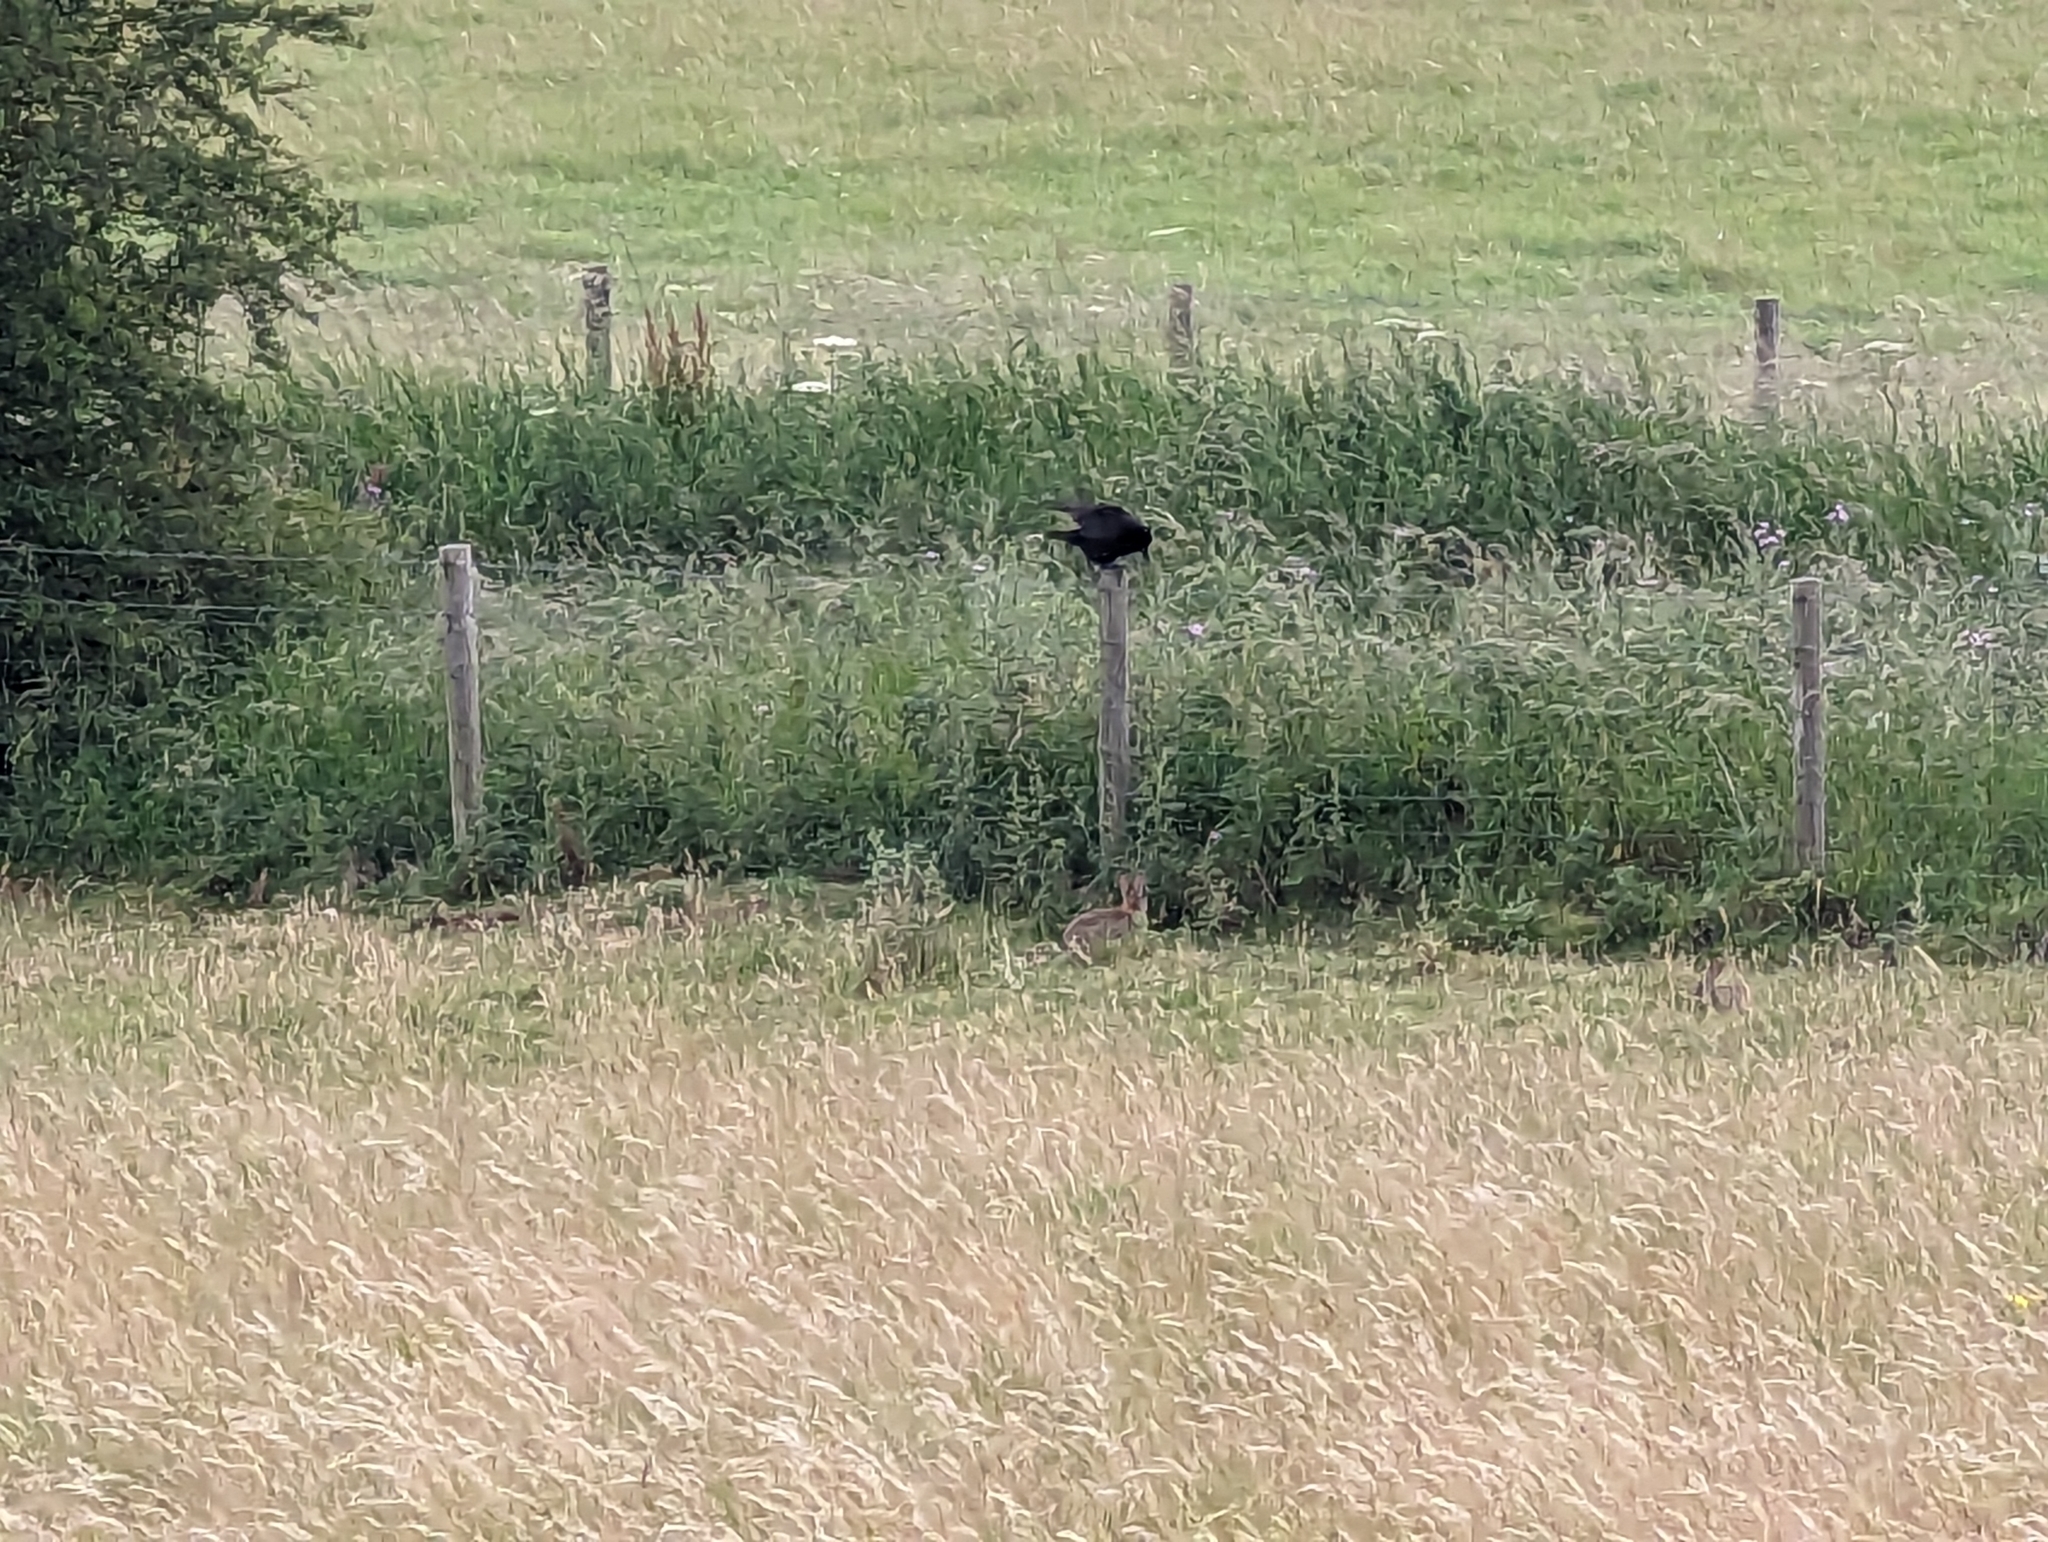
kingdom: Animalia
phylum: Chordata
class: Mammalia
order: Lagomorpha
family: Leporidae
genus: Oryctolagus
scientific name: Oryctolagus cuniculus
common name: European rabbit
